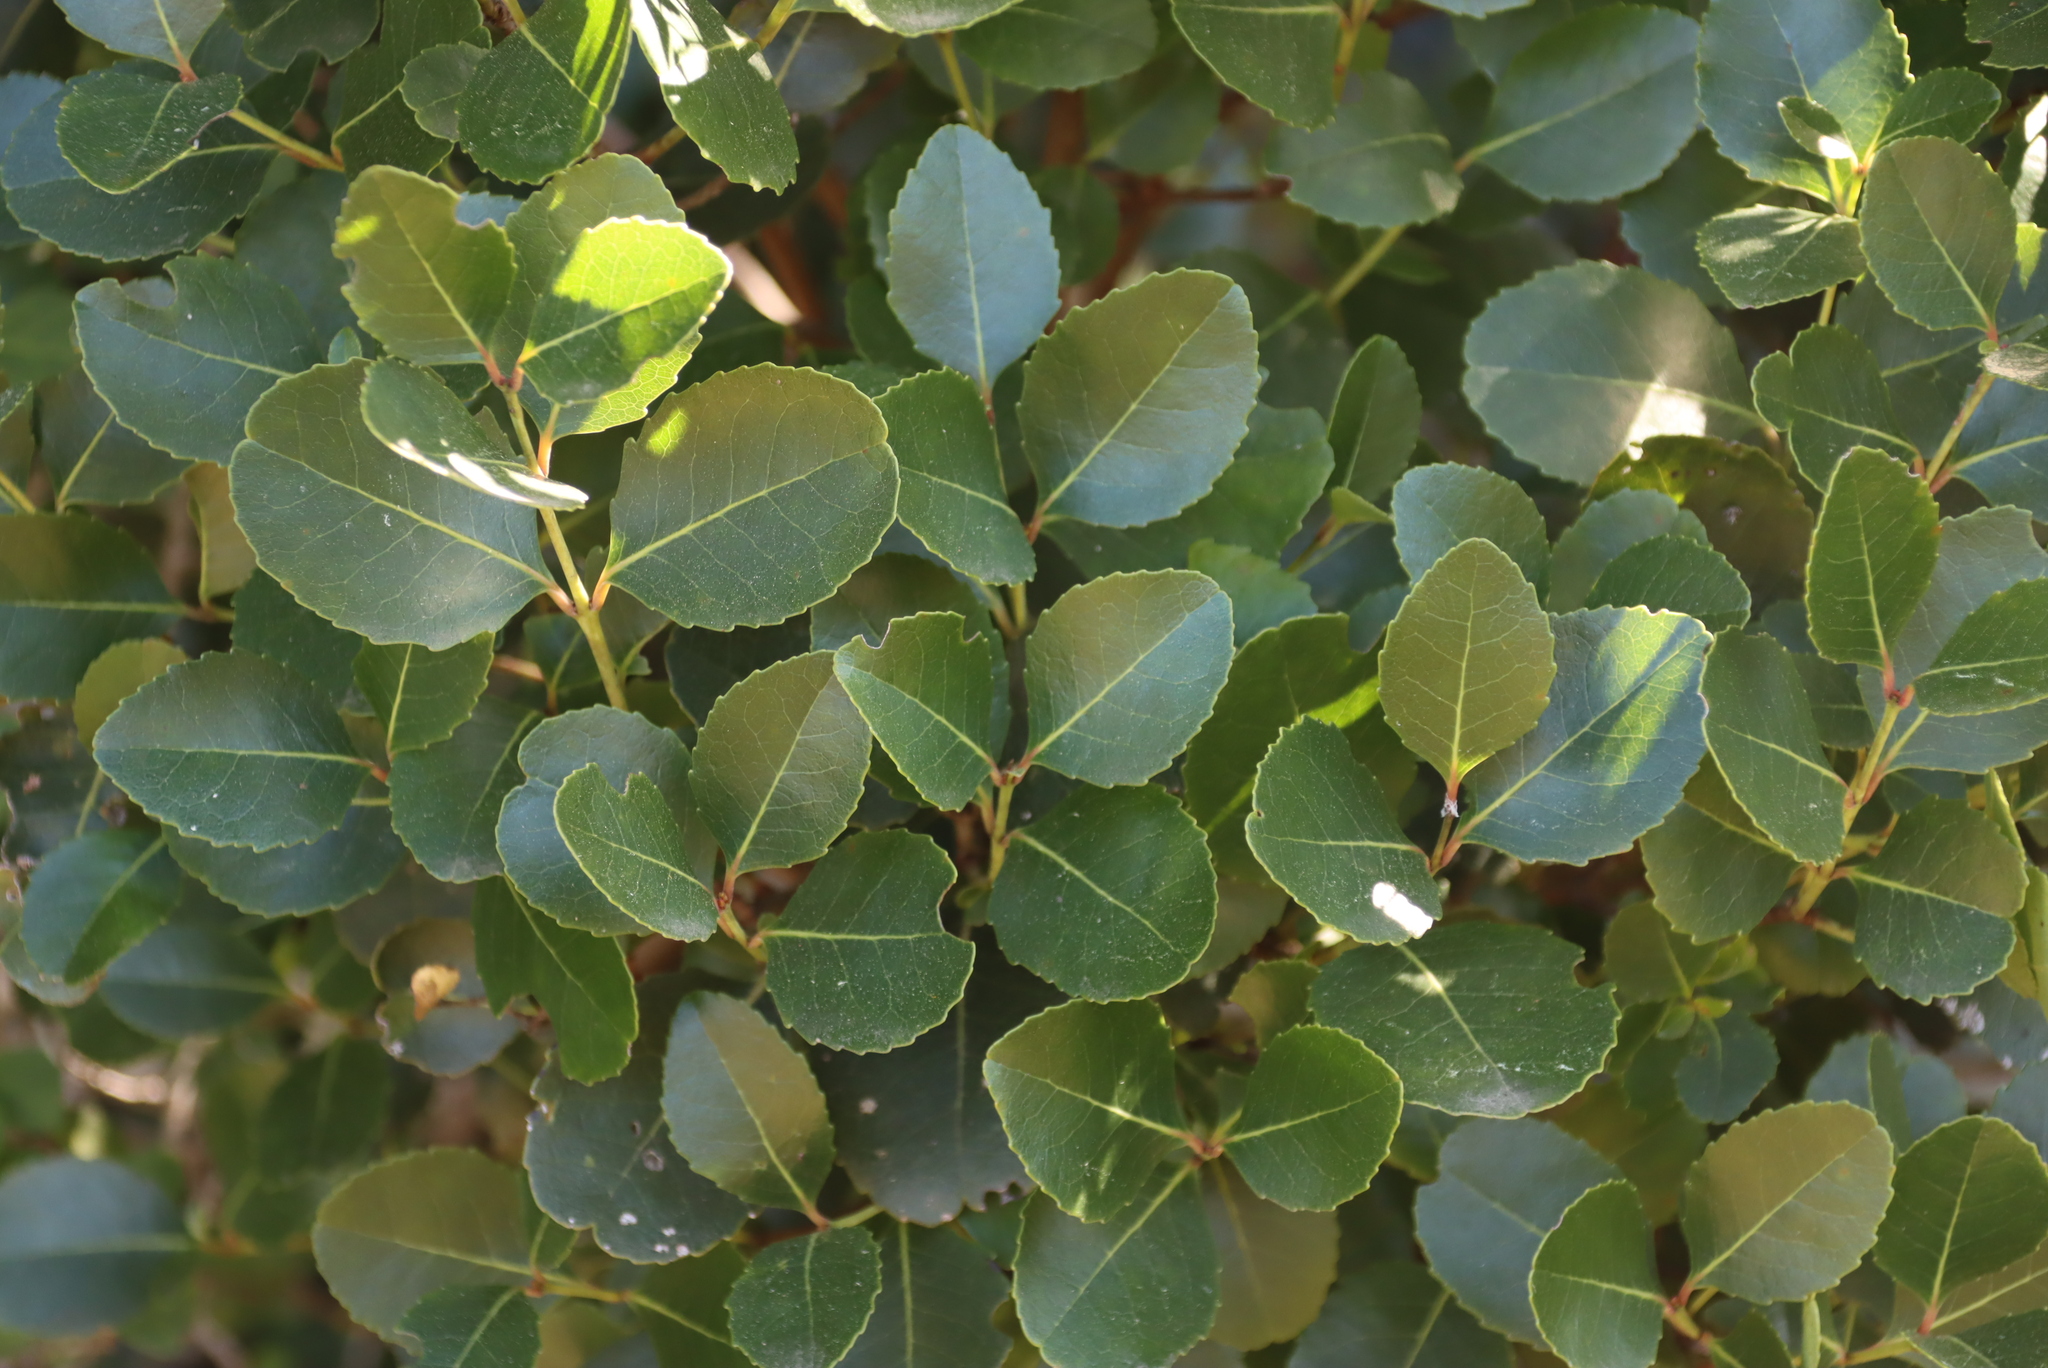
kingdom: Plantae
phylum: Tracheophyta
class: Magnoliopsida
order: Celastrales
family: Celastraceae
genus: Cassine
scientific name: Cassine peragua
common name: Cape saffron
